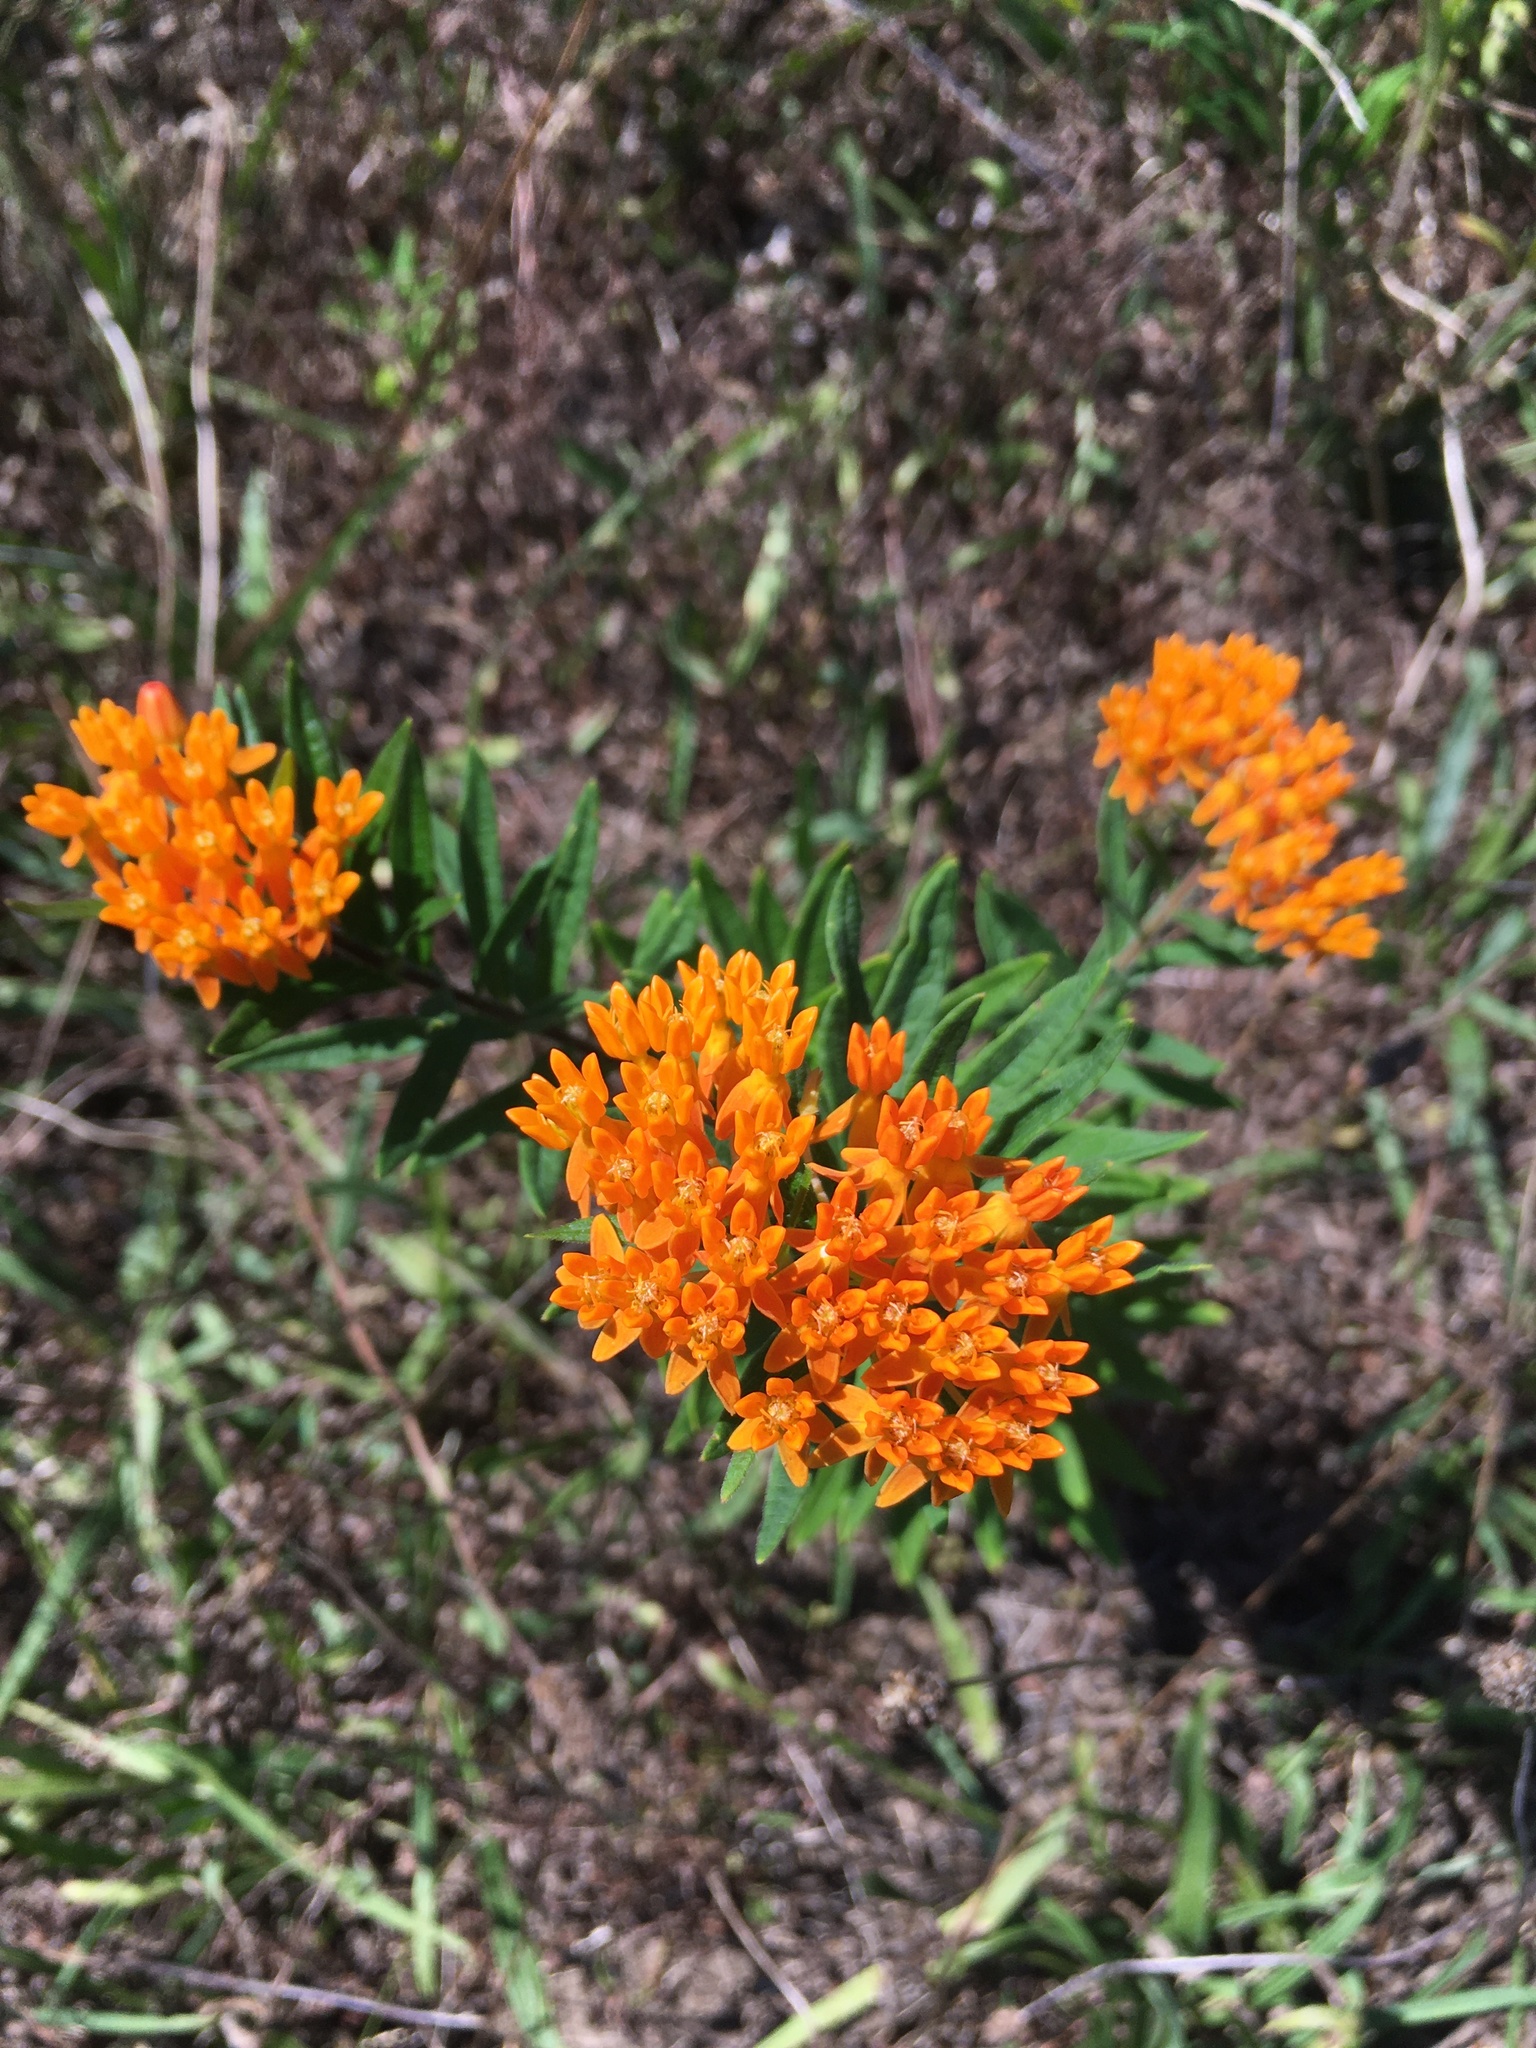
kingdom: Plantae
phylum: Tracheophyta
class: Magnoliopsida
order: Gentianales
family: Apocynaceae
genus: Asclepias
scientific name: Asclepias tuberosa
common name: Butterfly milkweed
